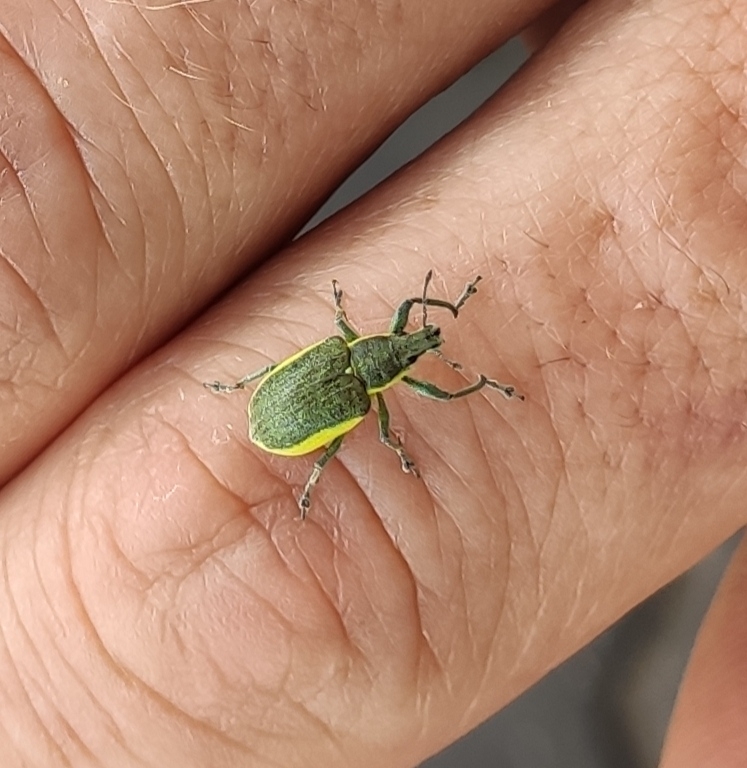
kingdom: Animalia
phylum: Arthropoda
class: Insecta
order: Coleoptera
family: Curculionidae
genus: Chlorophanus
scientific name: Chlorophanus viridis
